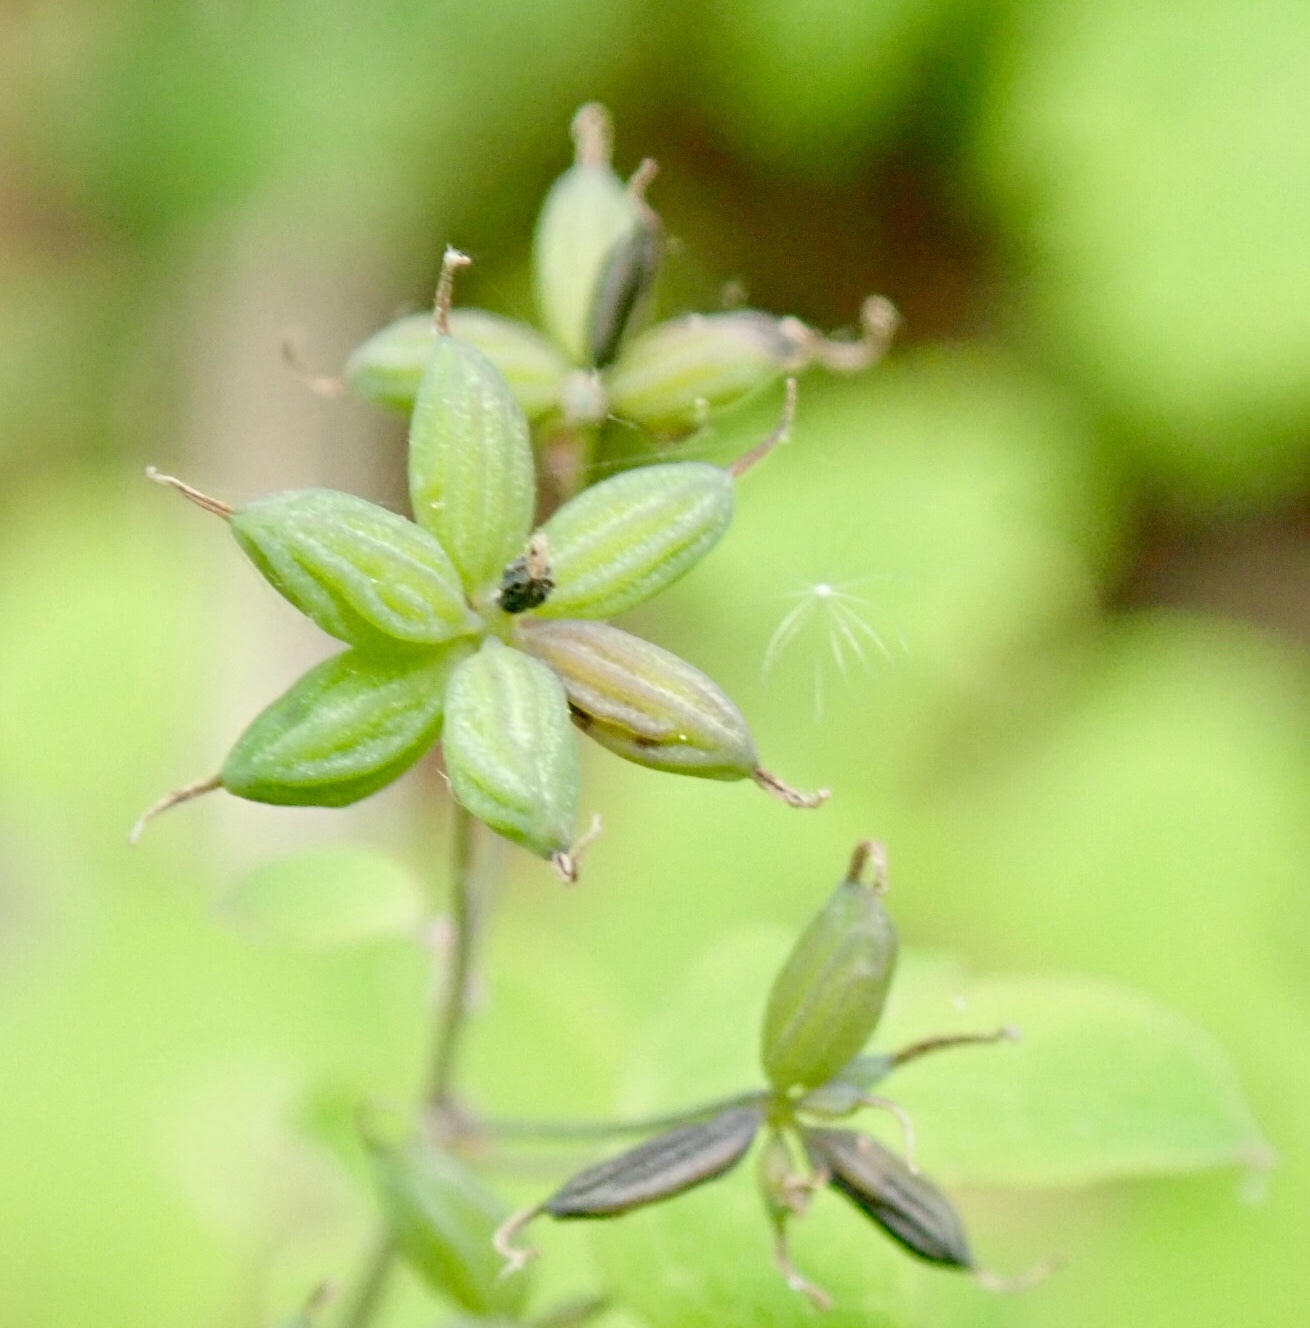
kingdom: Plantae
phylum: Tracheophyta
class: Magnoliopsida
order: Ranunculales
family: Ranunculaceae
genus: Thalictrum
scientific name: Thalictrum dioicum
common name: Early meadow-rue
